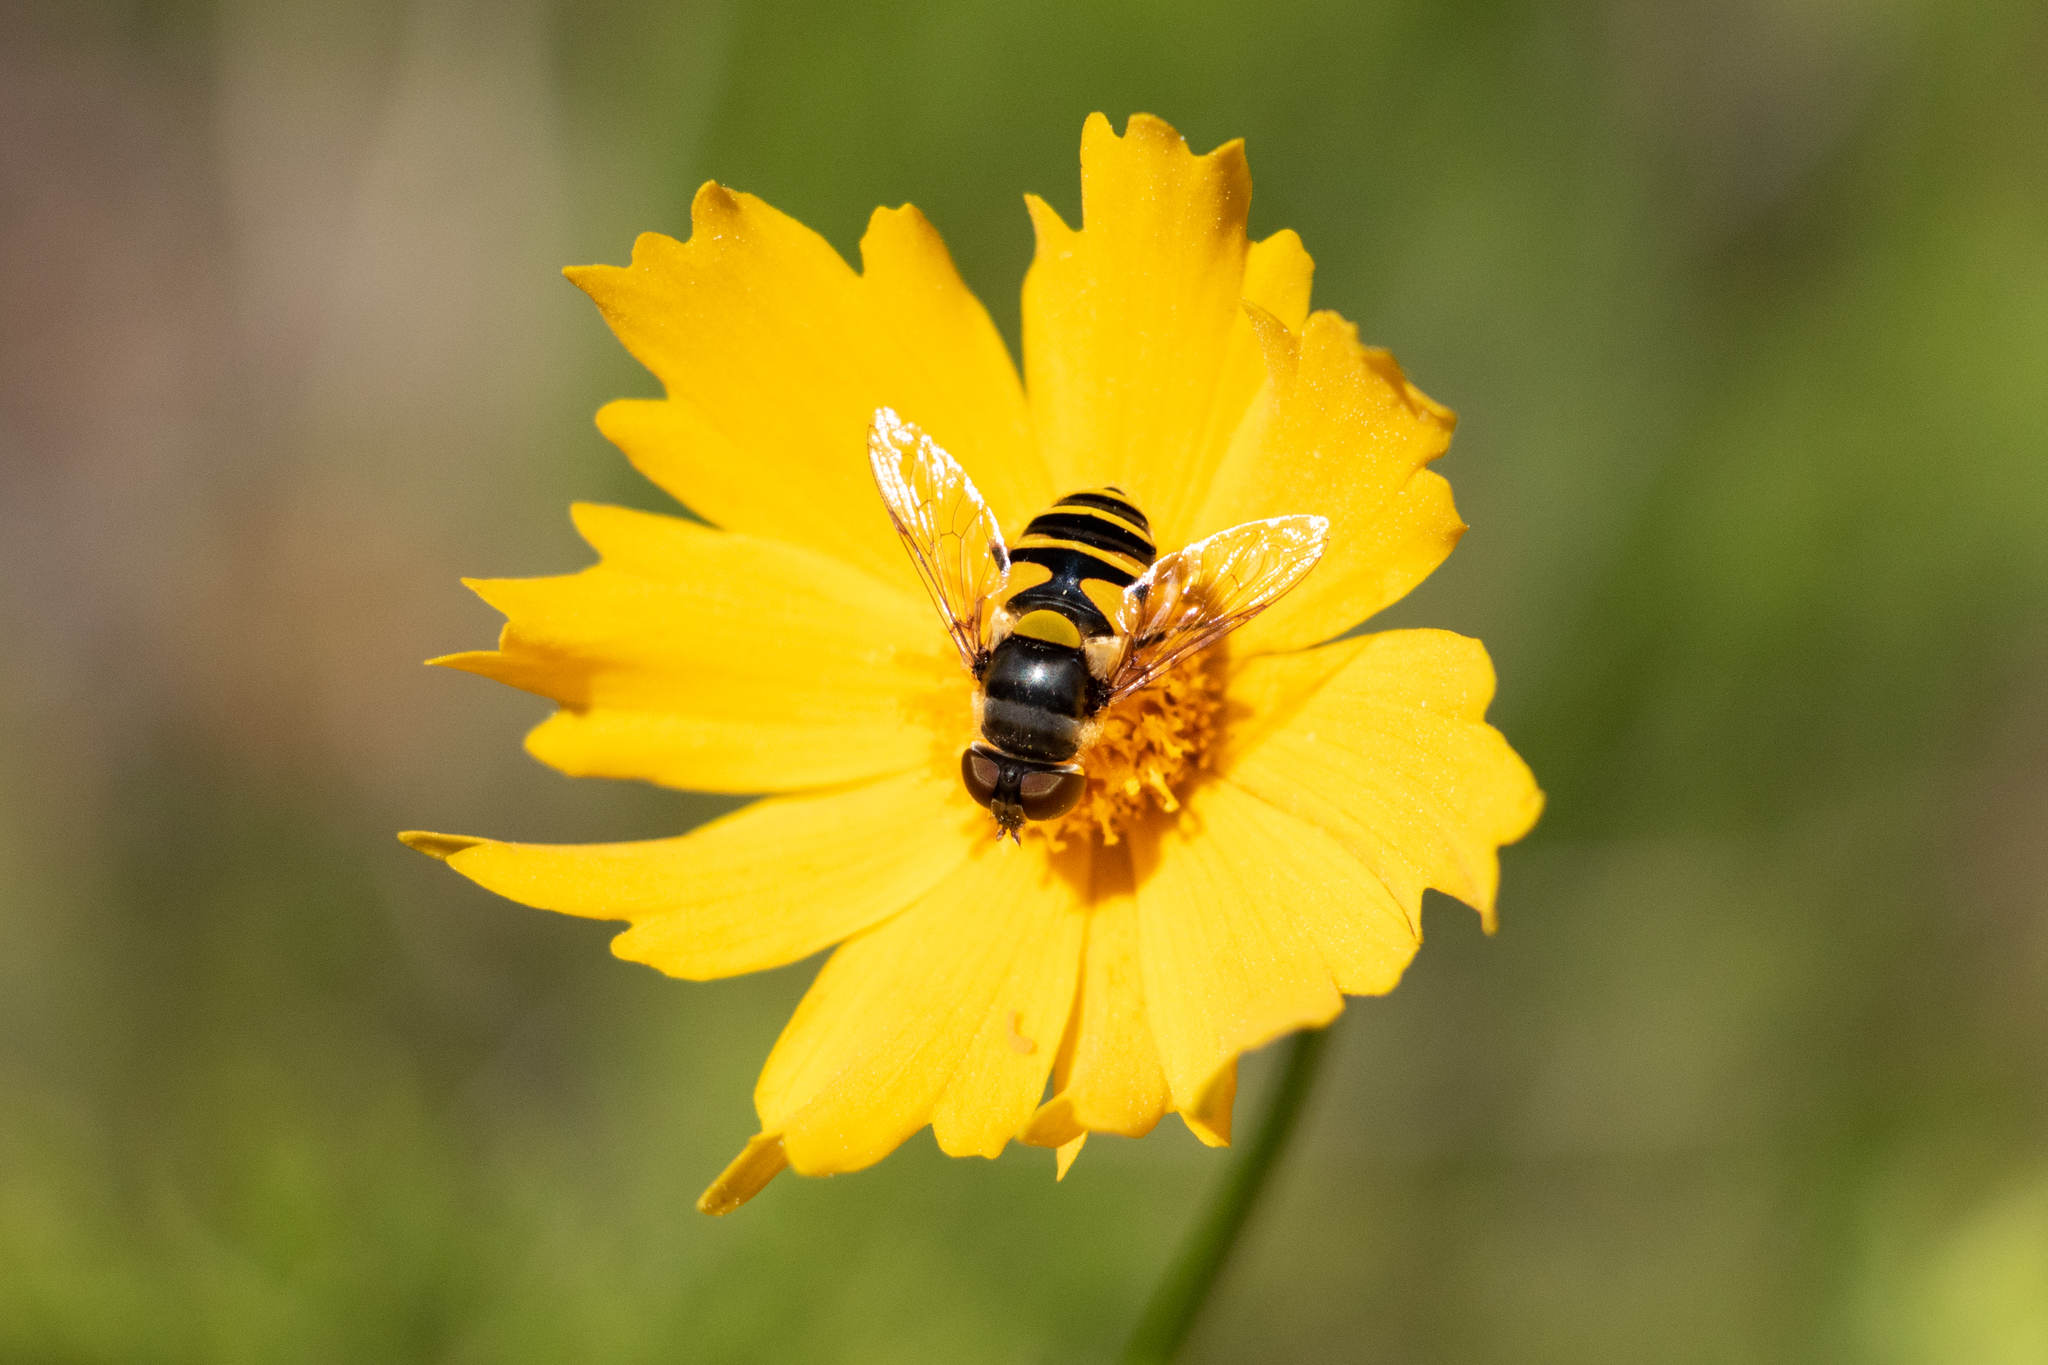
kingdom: Animalia
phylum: Arthropoda
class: Insecta
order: Diptera
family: Syrphidae
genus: Eristalis
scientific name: Eristalis transversa
